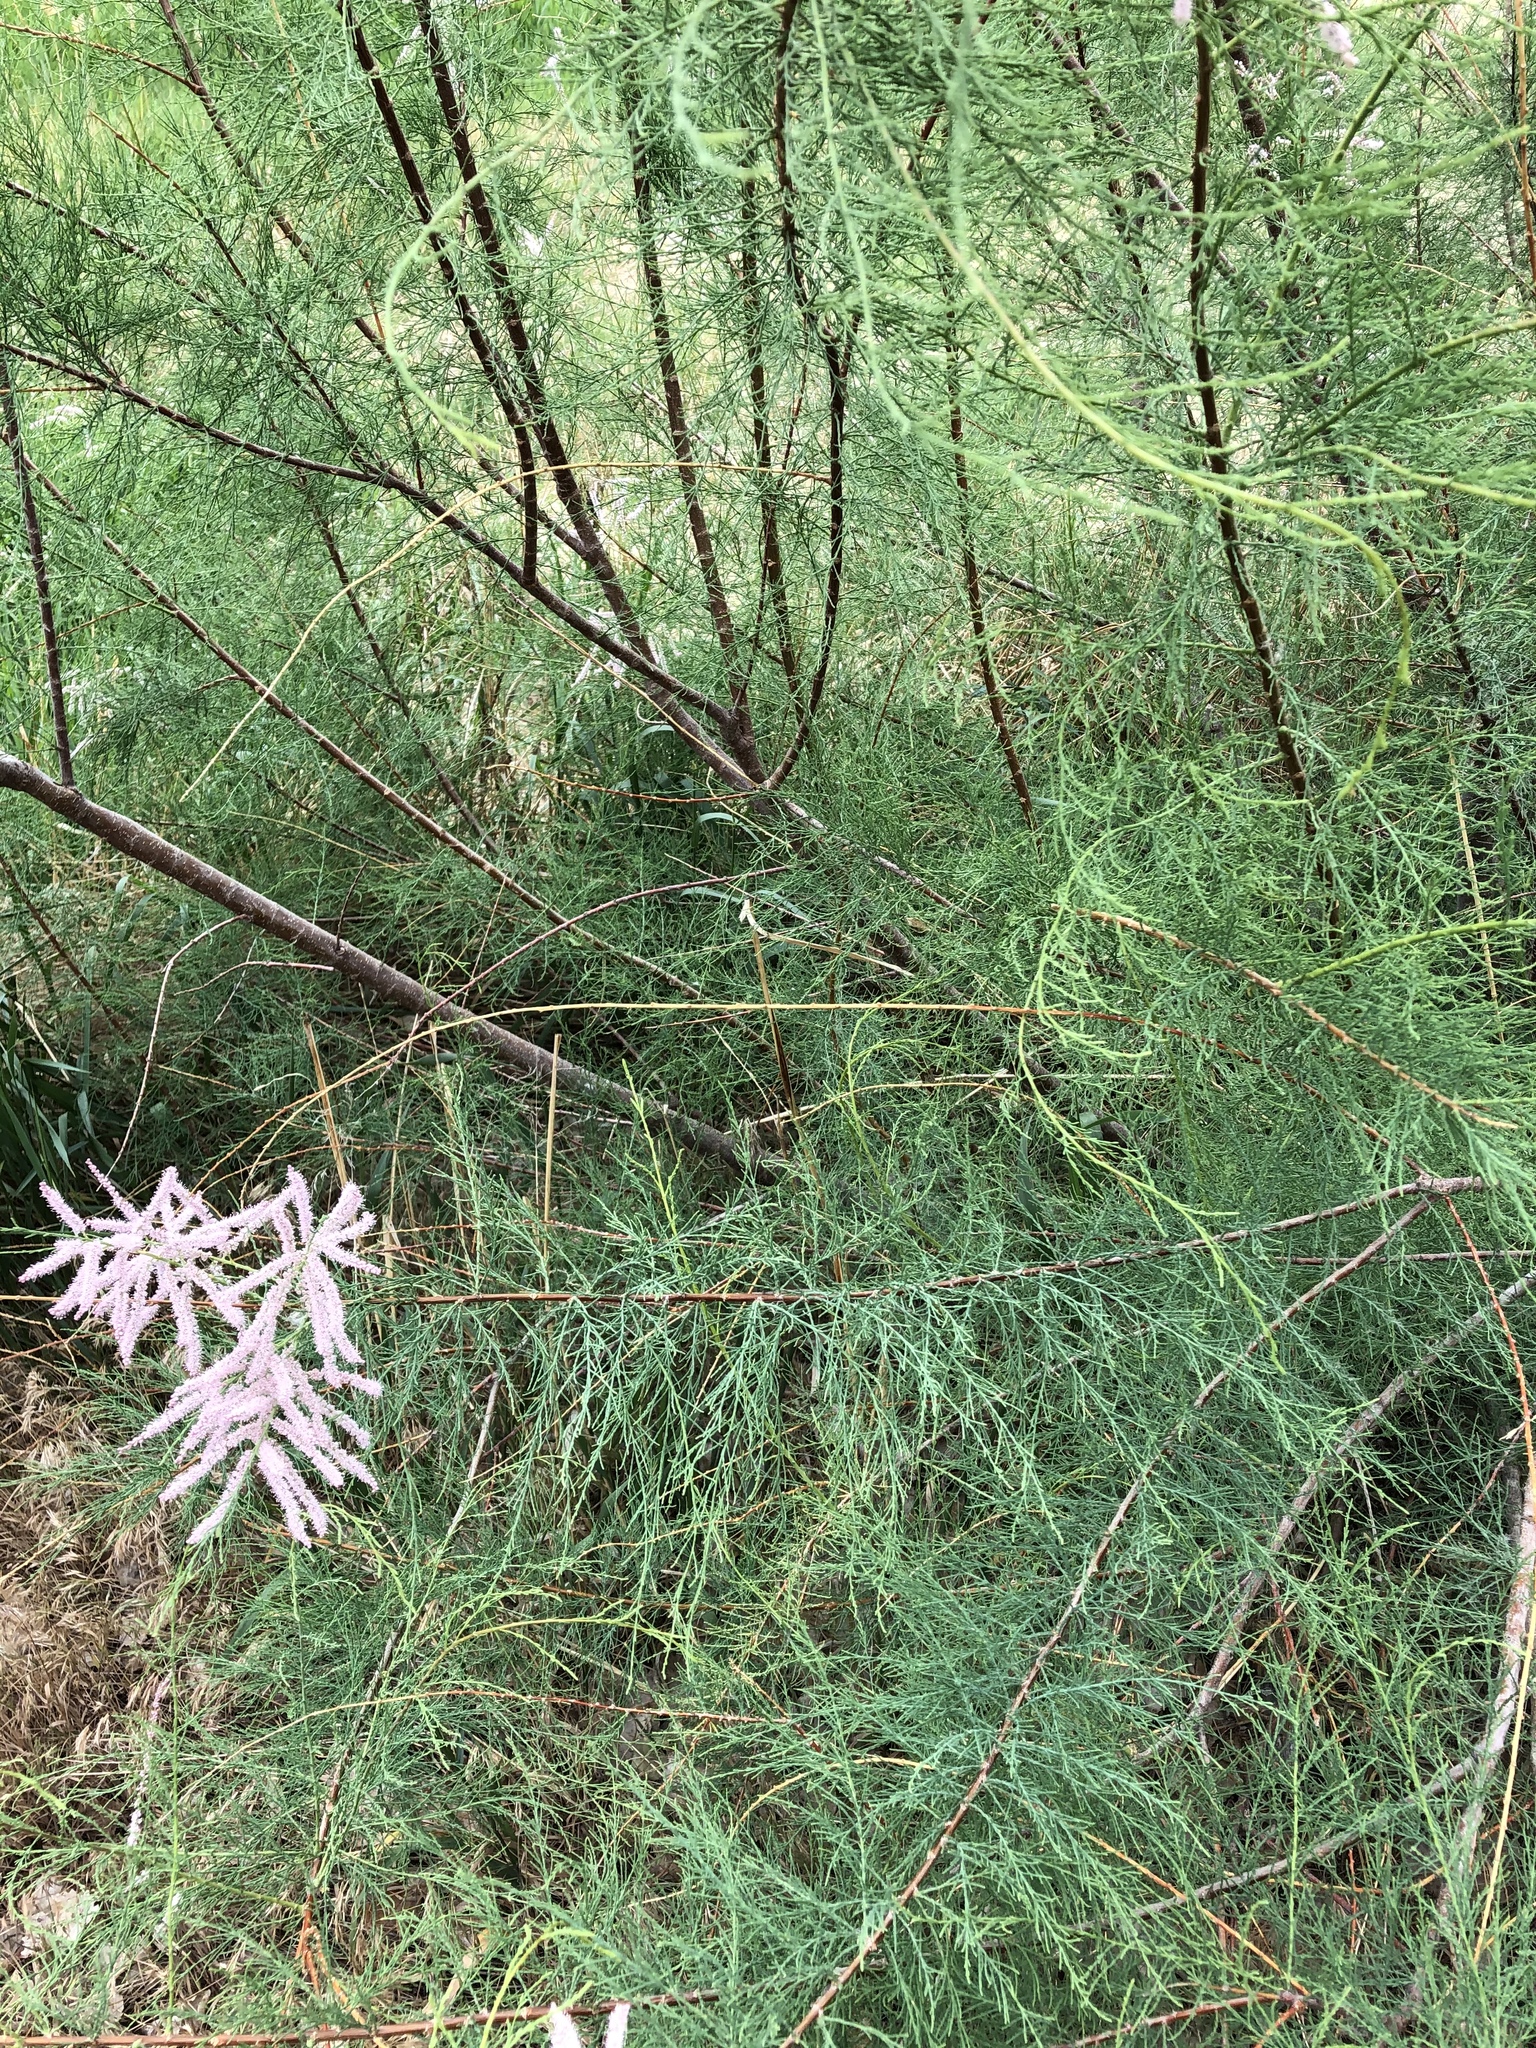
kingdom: Plantae
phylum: Tracheophyta
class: Magnoliopsida
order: Caryophyllales
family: Tamaricaceae
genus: Tamarix
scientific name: Tamarix ramosissima
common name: Pink tamarisk
